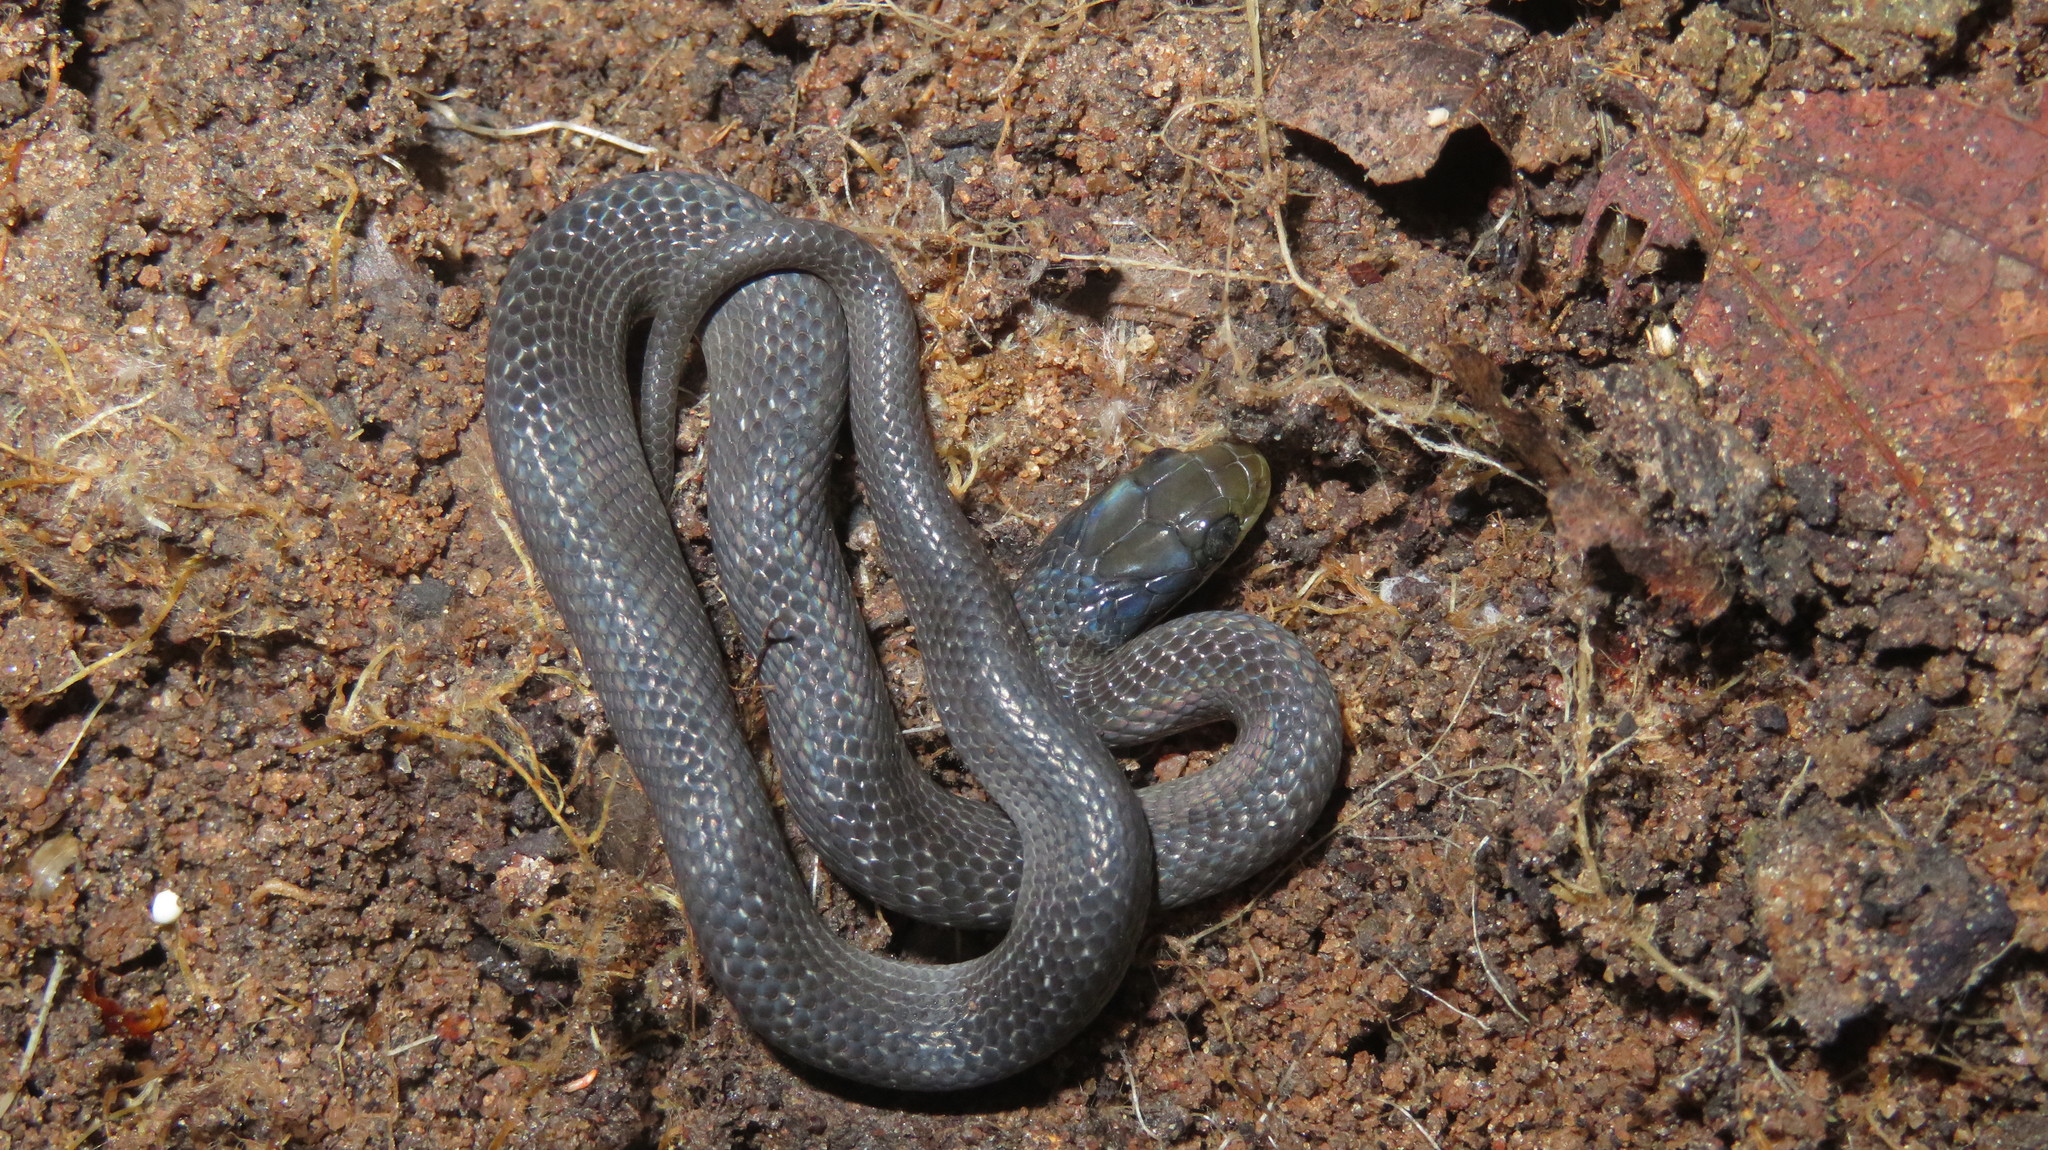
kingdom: Animalia
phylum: Chordata
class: Squamata
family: Colubridae
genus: Crotaphopeltis
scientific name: Crotaphopeltis hotamboeia
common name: Red-lipped snake
